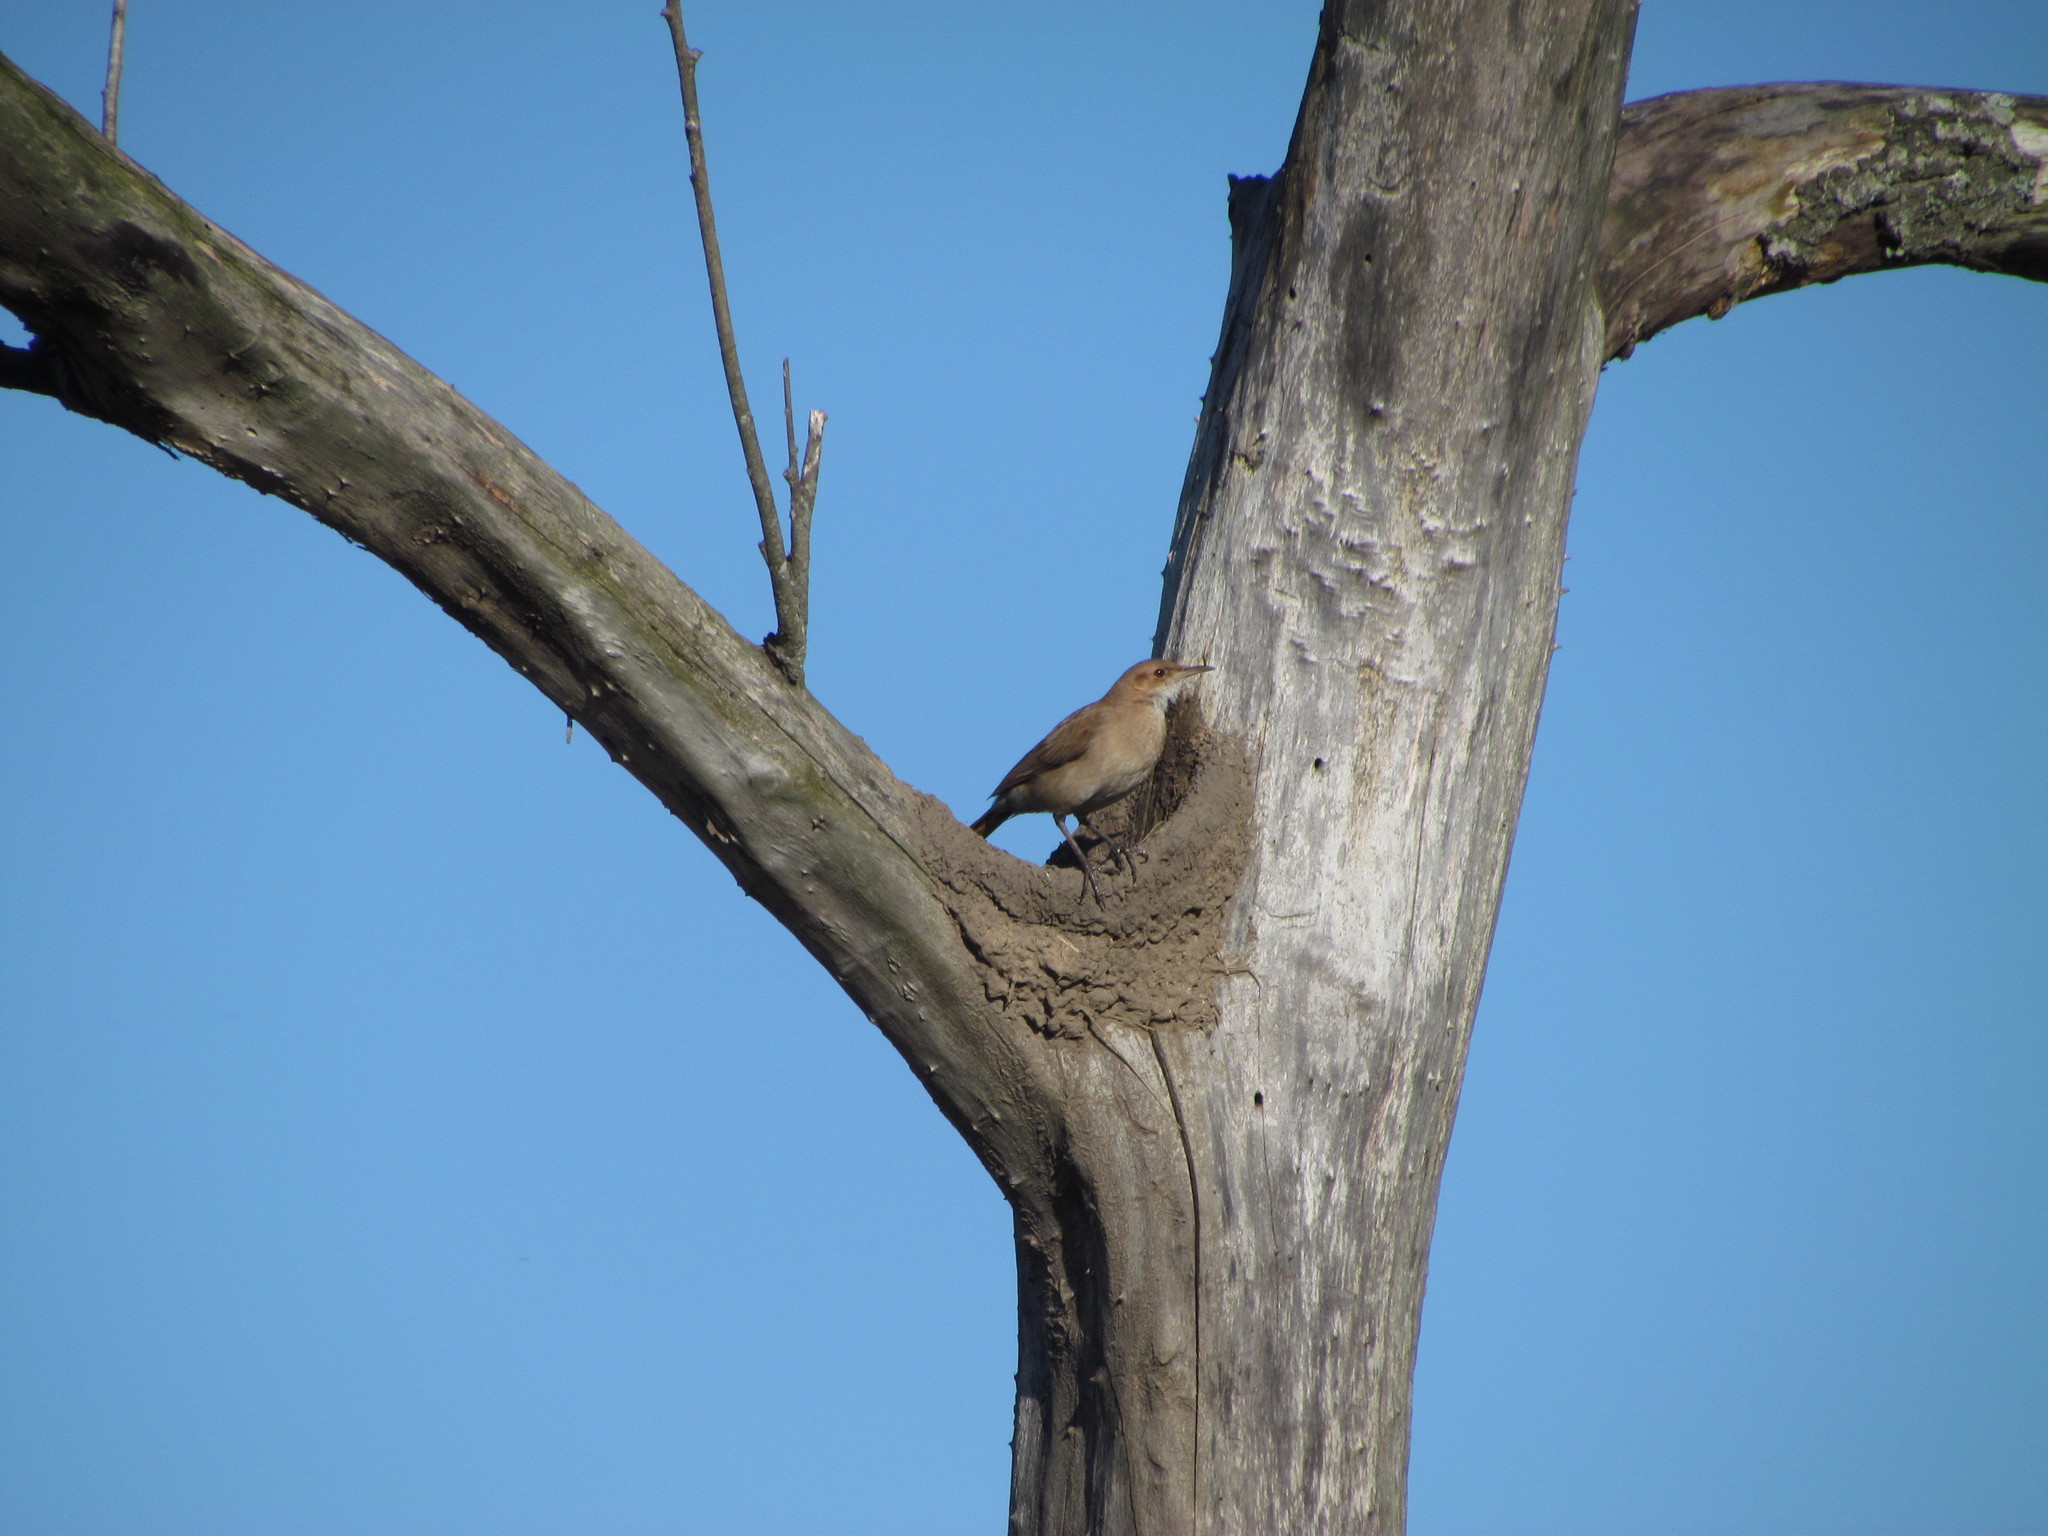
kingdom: Animalia
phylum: Chordata
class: Aves
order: Passeriformes
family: Furnariidae
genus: Furnarius
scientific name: Furnarius rufus
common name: Rufous hornero
